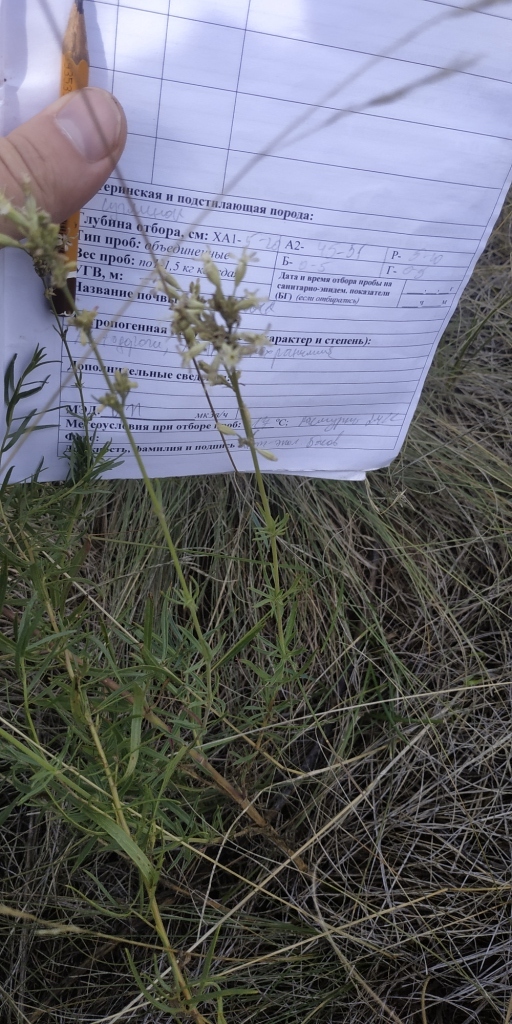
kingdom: Plantae
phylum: Tracheophyta
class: Magnoliopsida
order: Caryophyllales
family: Caryophyllaceae
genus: Silene
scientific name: Silene amoena
